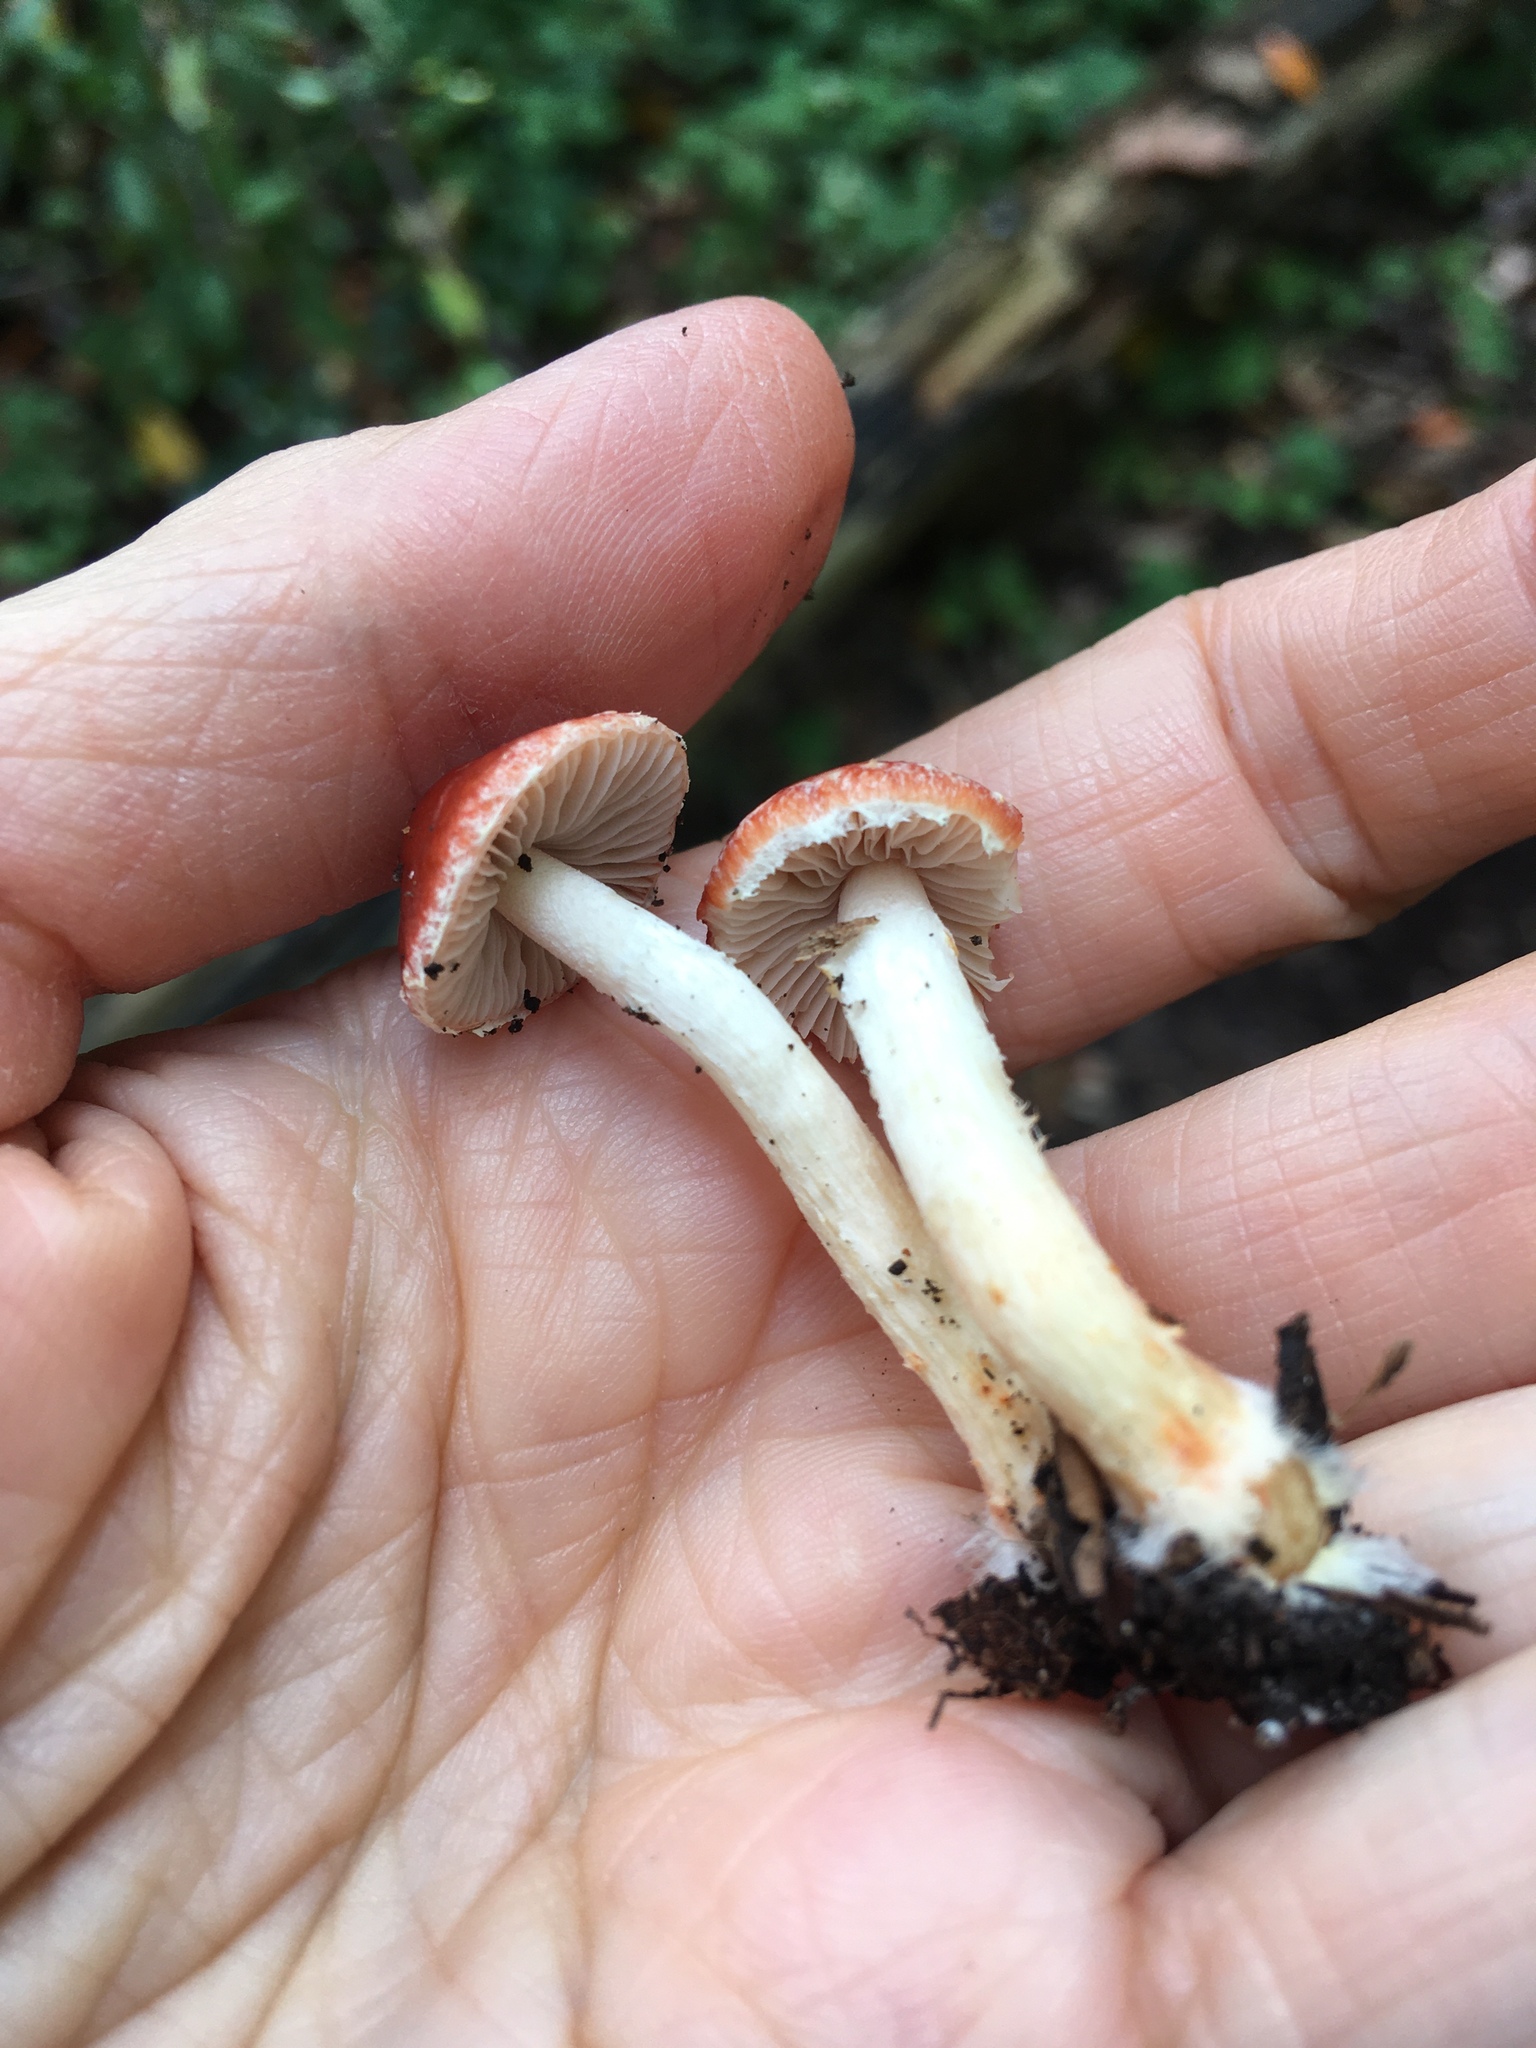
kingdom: Fungi
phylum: Basidiomycota
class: Agaricomycetes
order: Agaricales
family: Strophariaceae
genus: Leratiomyces
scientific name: Leratiomyces ceres
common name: Redlead roundhead
